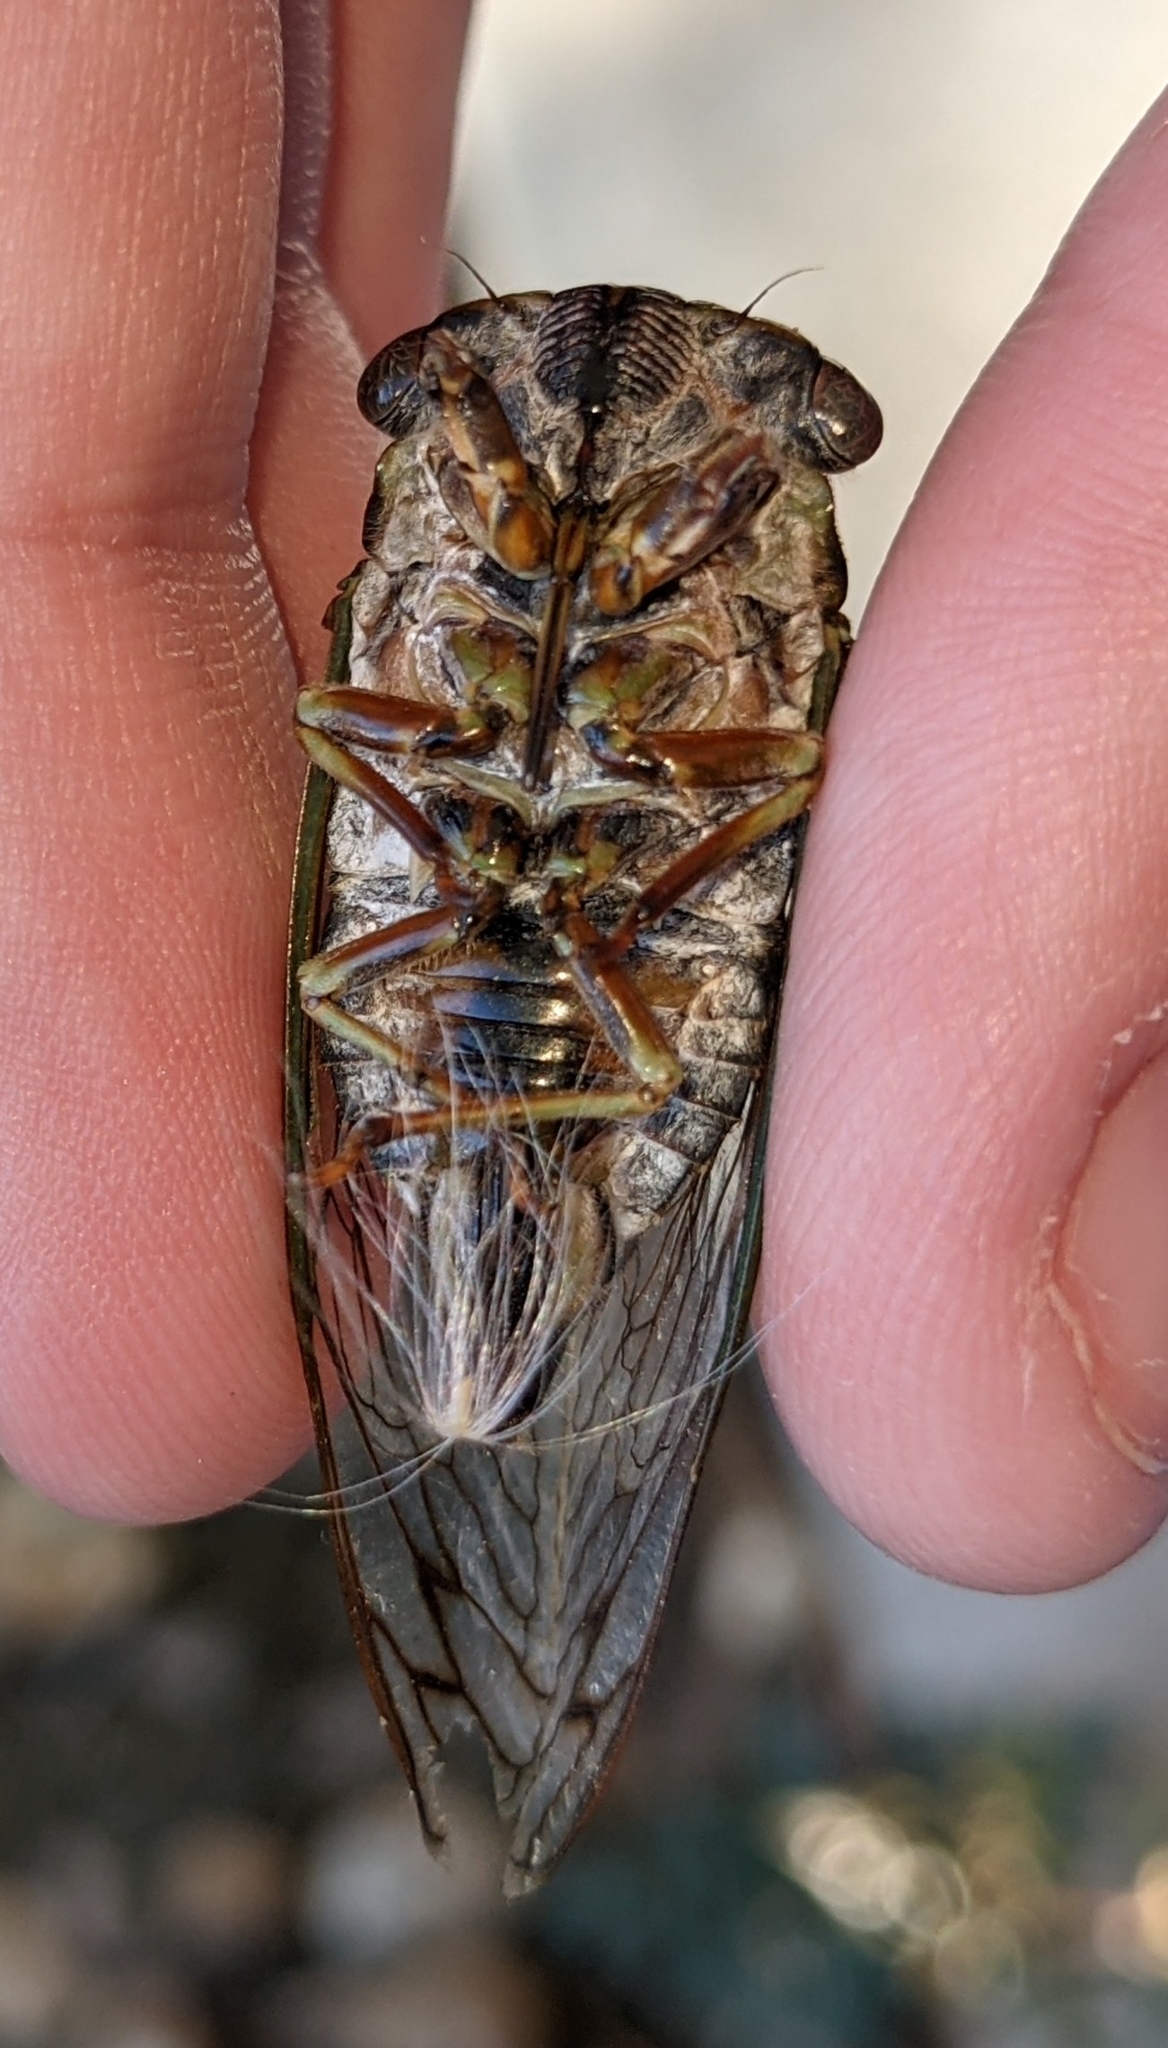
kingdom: Animalia
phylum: Arthropoda
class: Insecta
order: Hemiptera
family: Cicadidae
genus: Neotibicen
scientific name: Neotibicen davisi
